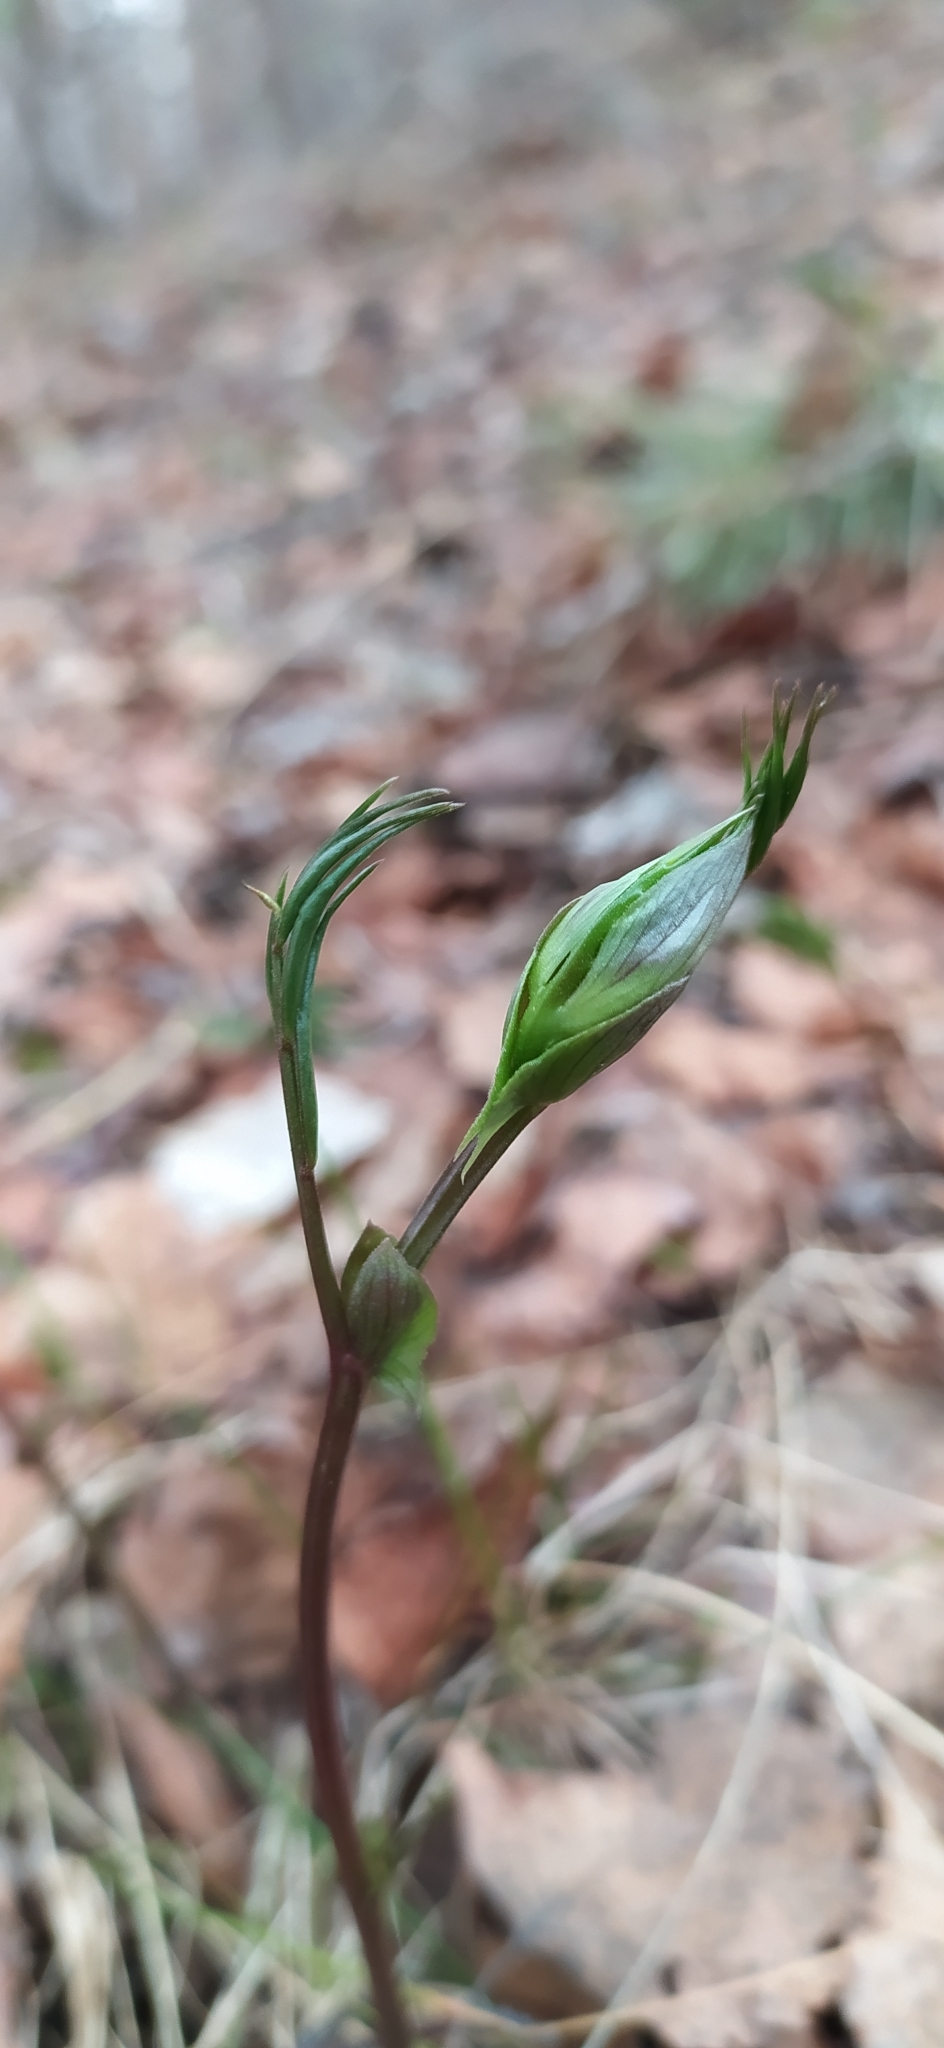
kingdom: Plantae
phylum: Tracheophyta
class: Magnoliopsida
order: Fabales
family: Fabaceae
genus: Lathyrus
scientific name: Lathyrus vernus
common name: Spring pea
